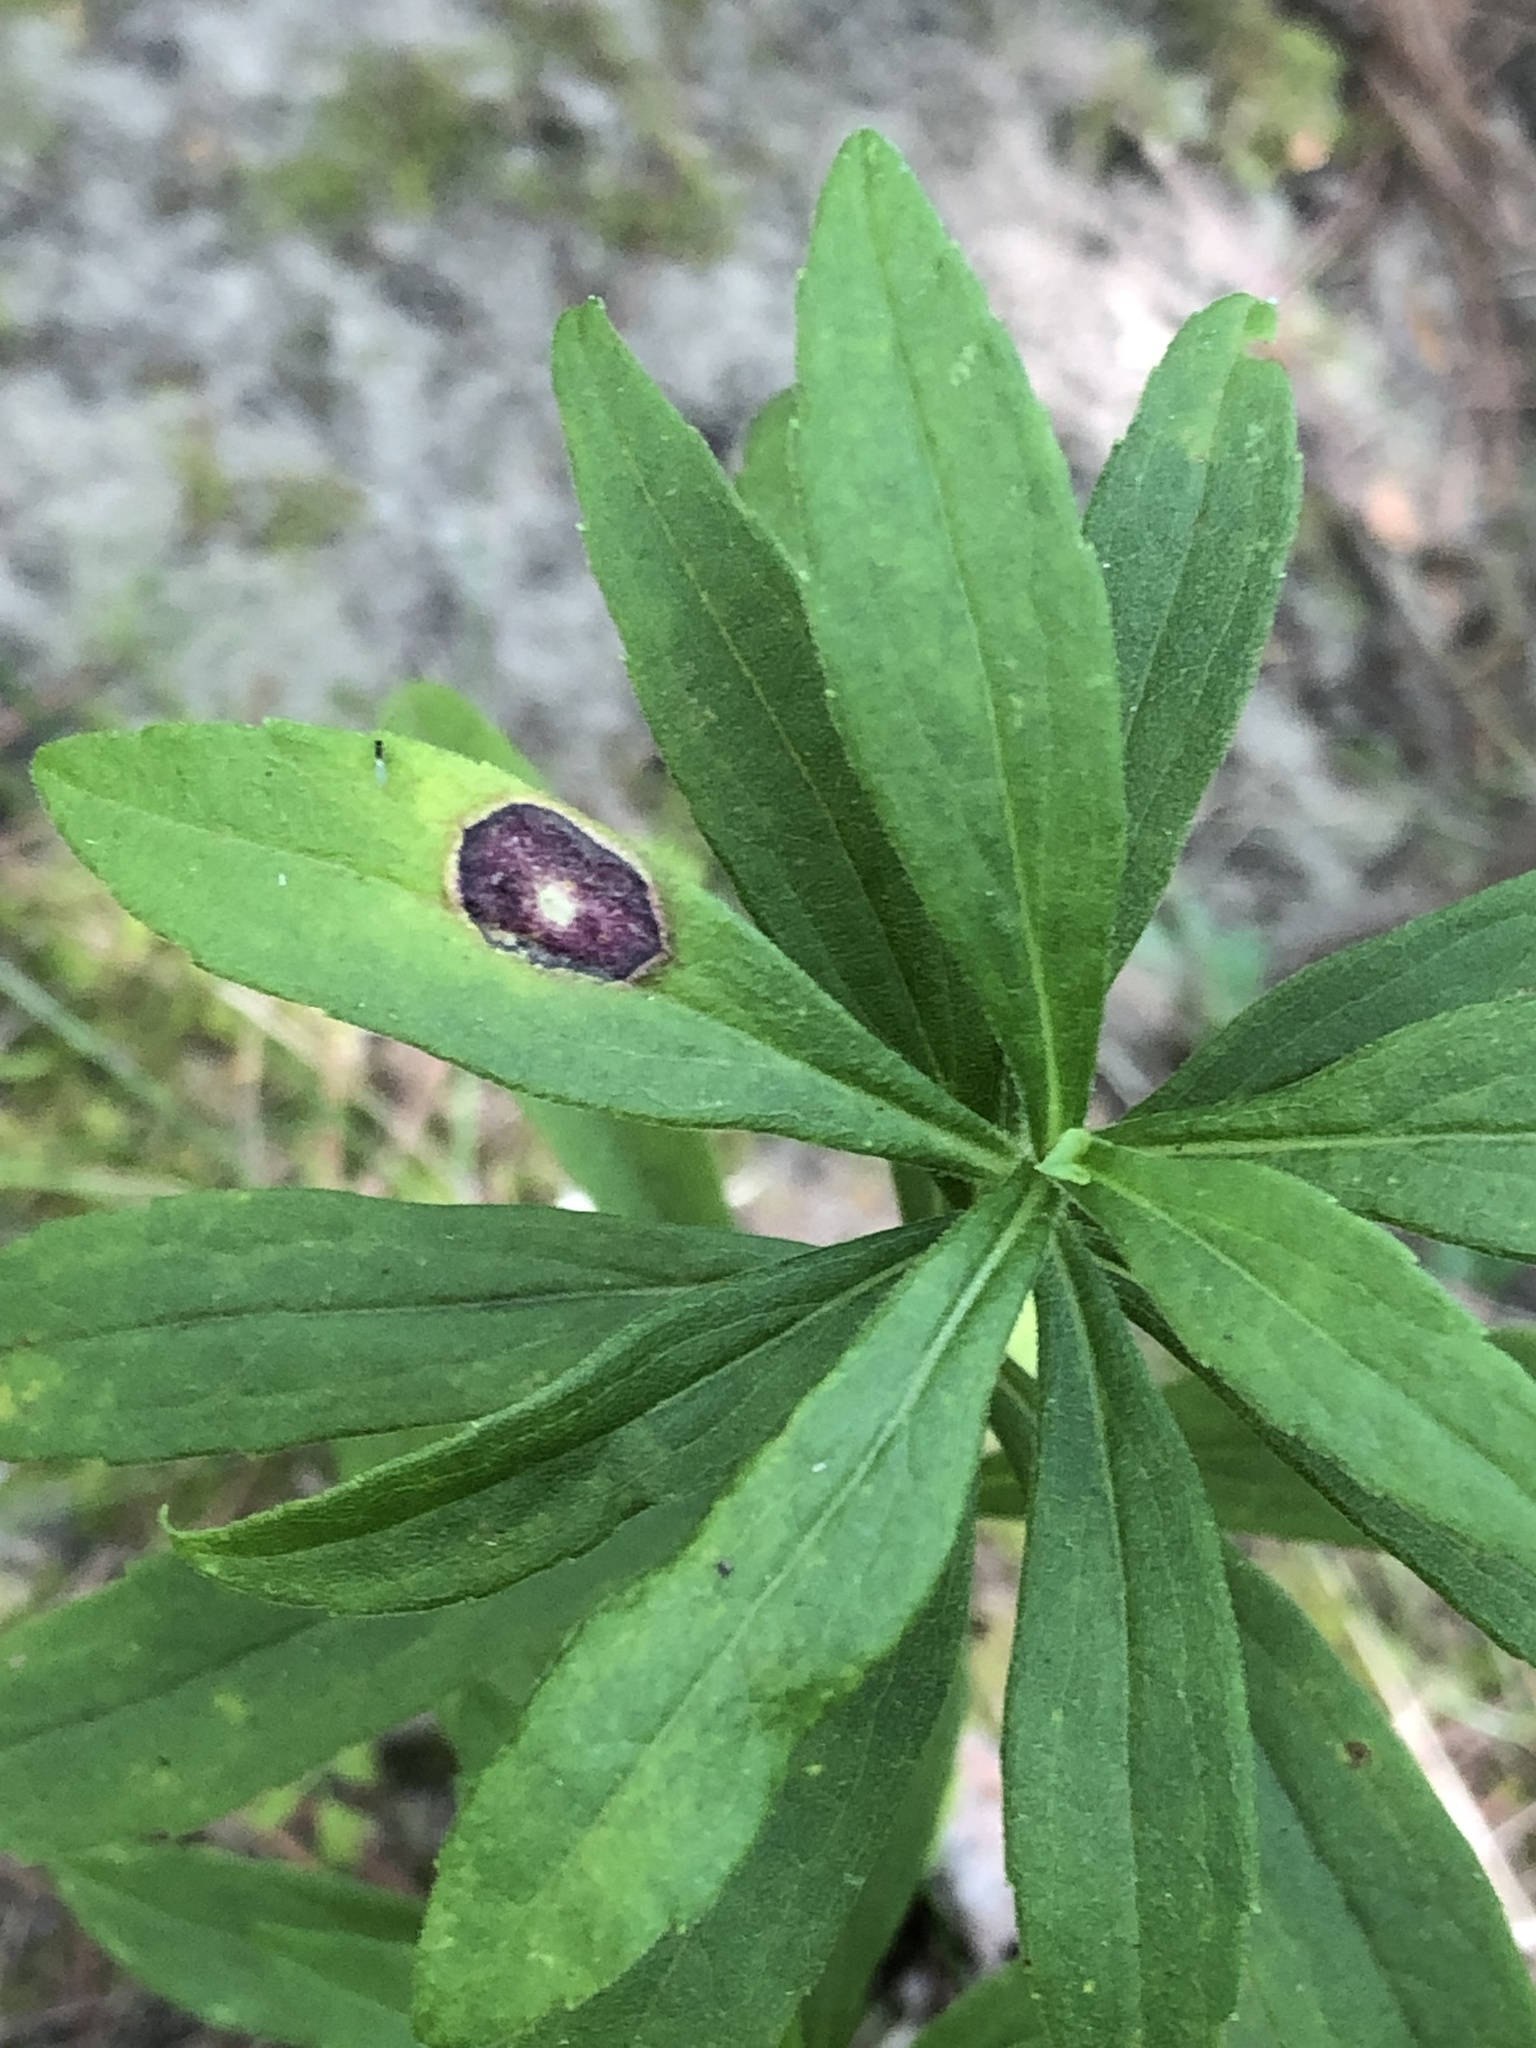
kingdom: Animalia
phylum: Arthropoda
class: Insecta
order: Diptera
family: Cecidomyiidae
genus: Asteromyia
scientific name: Asteromyia carbonifera
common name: Carbonifera goldenrod gall midge
